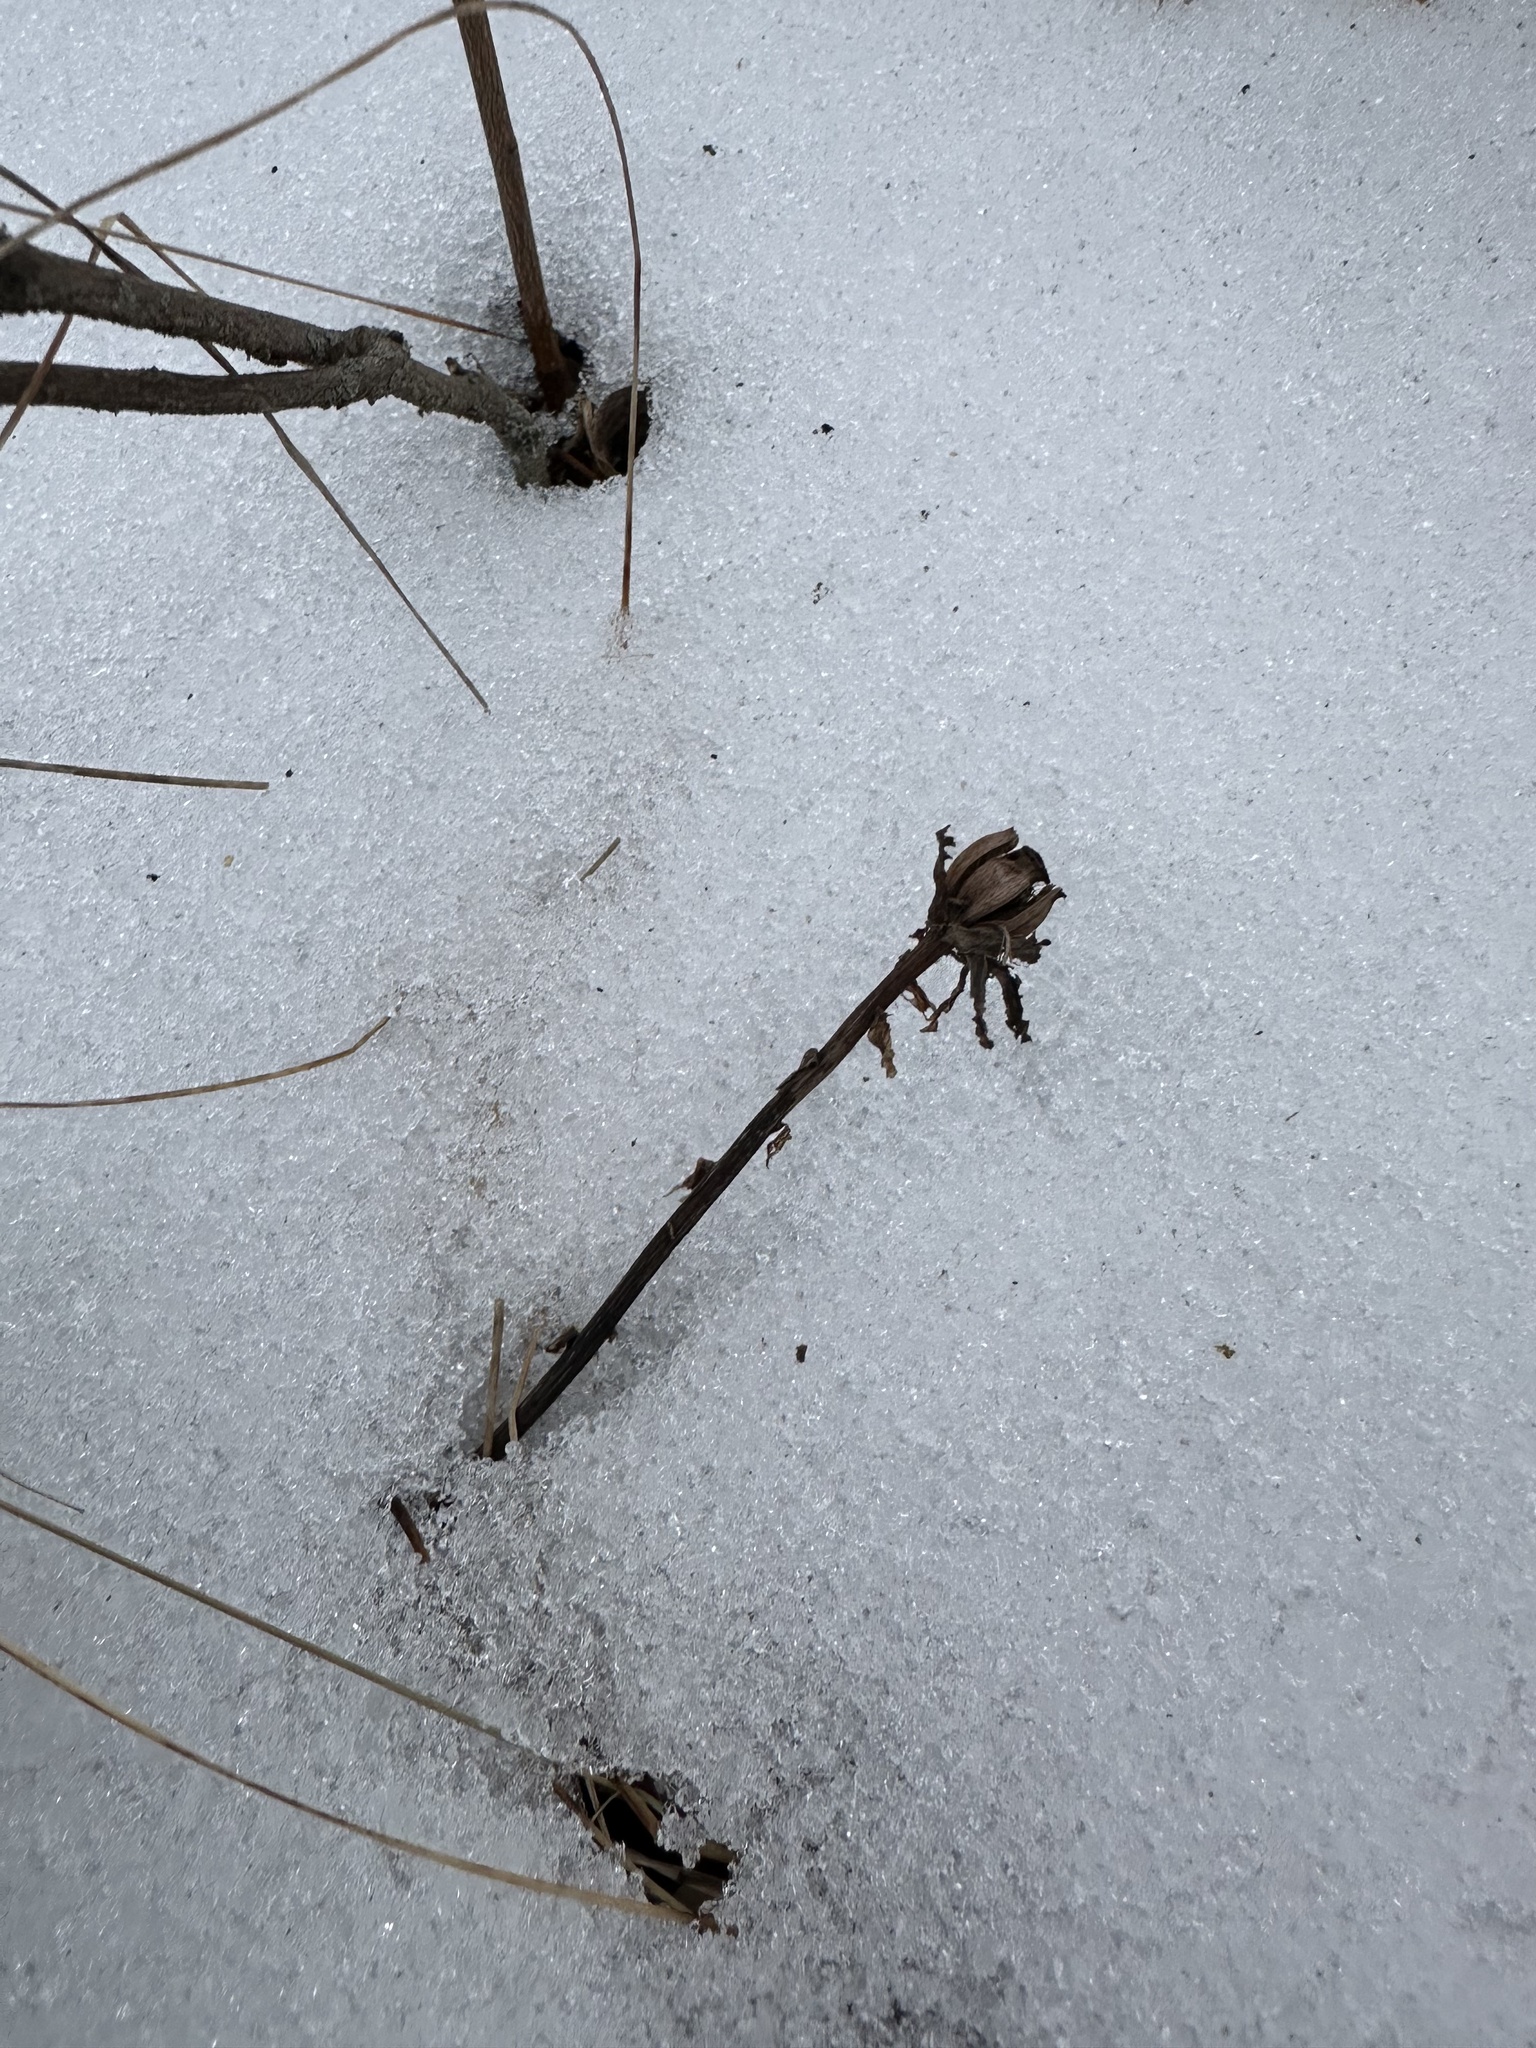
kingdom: Plantae
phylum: Tracheophyta
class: Magnoliopsida
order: Ericales
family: Ericaceae
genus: Monotropa
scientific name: Monotropa uniflora
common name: Convulsion root
